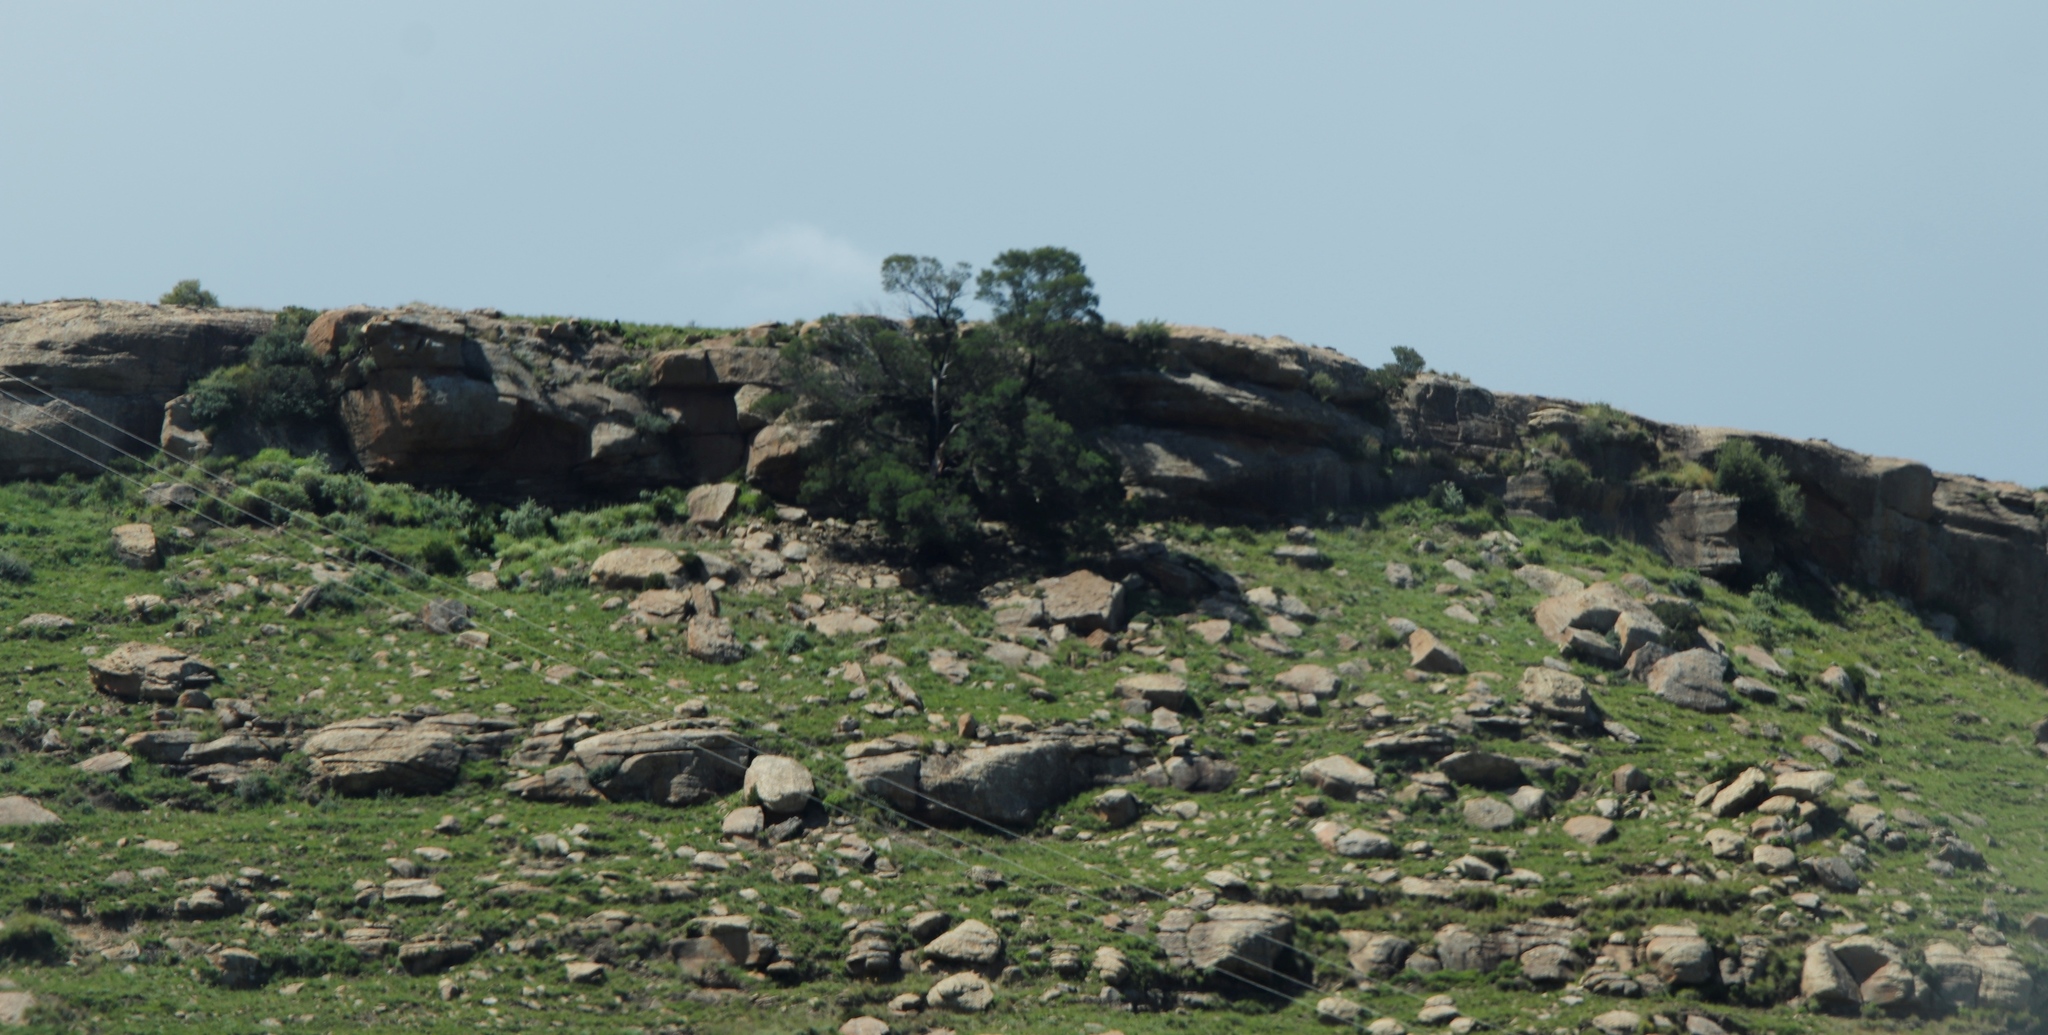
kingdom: Plantae
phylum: Tracheophyta
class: Magnoliopsida
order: Fabales
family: Fabaceae
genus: Acacia
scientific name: Acacia mearnsii
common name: Black wattle
